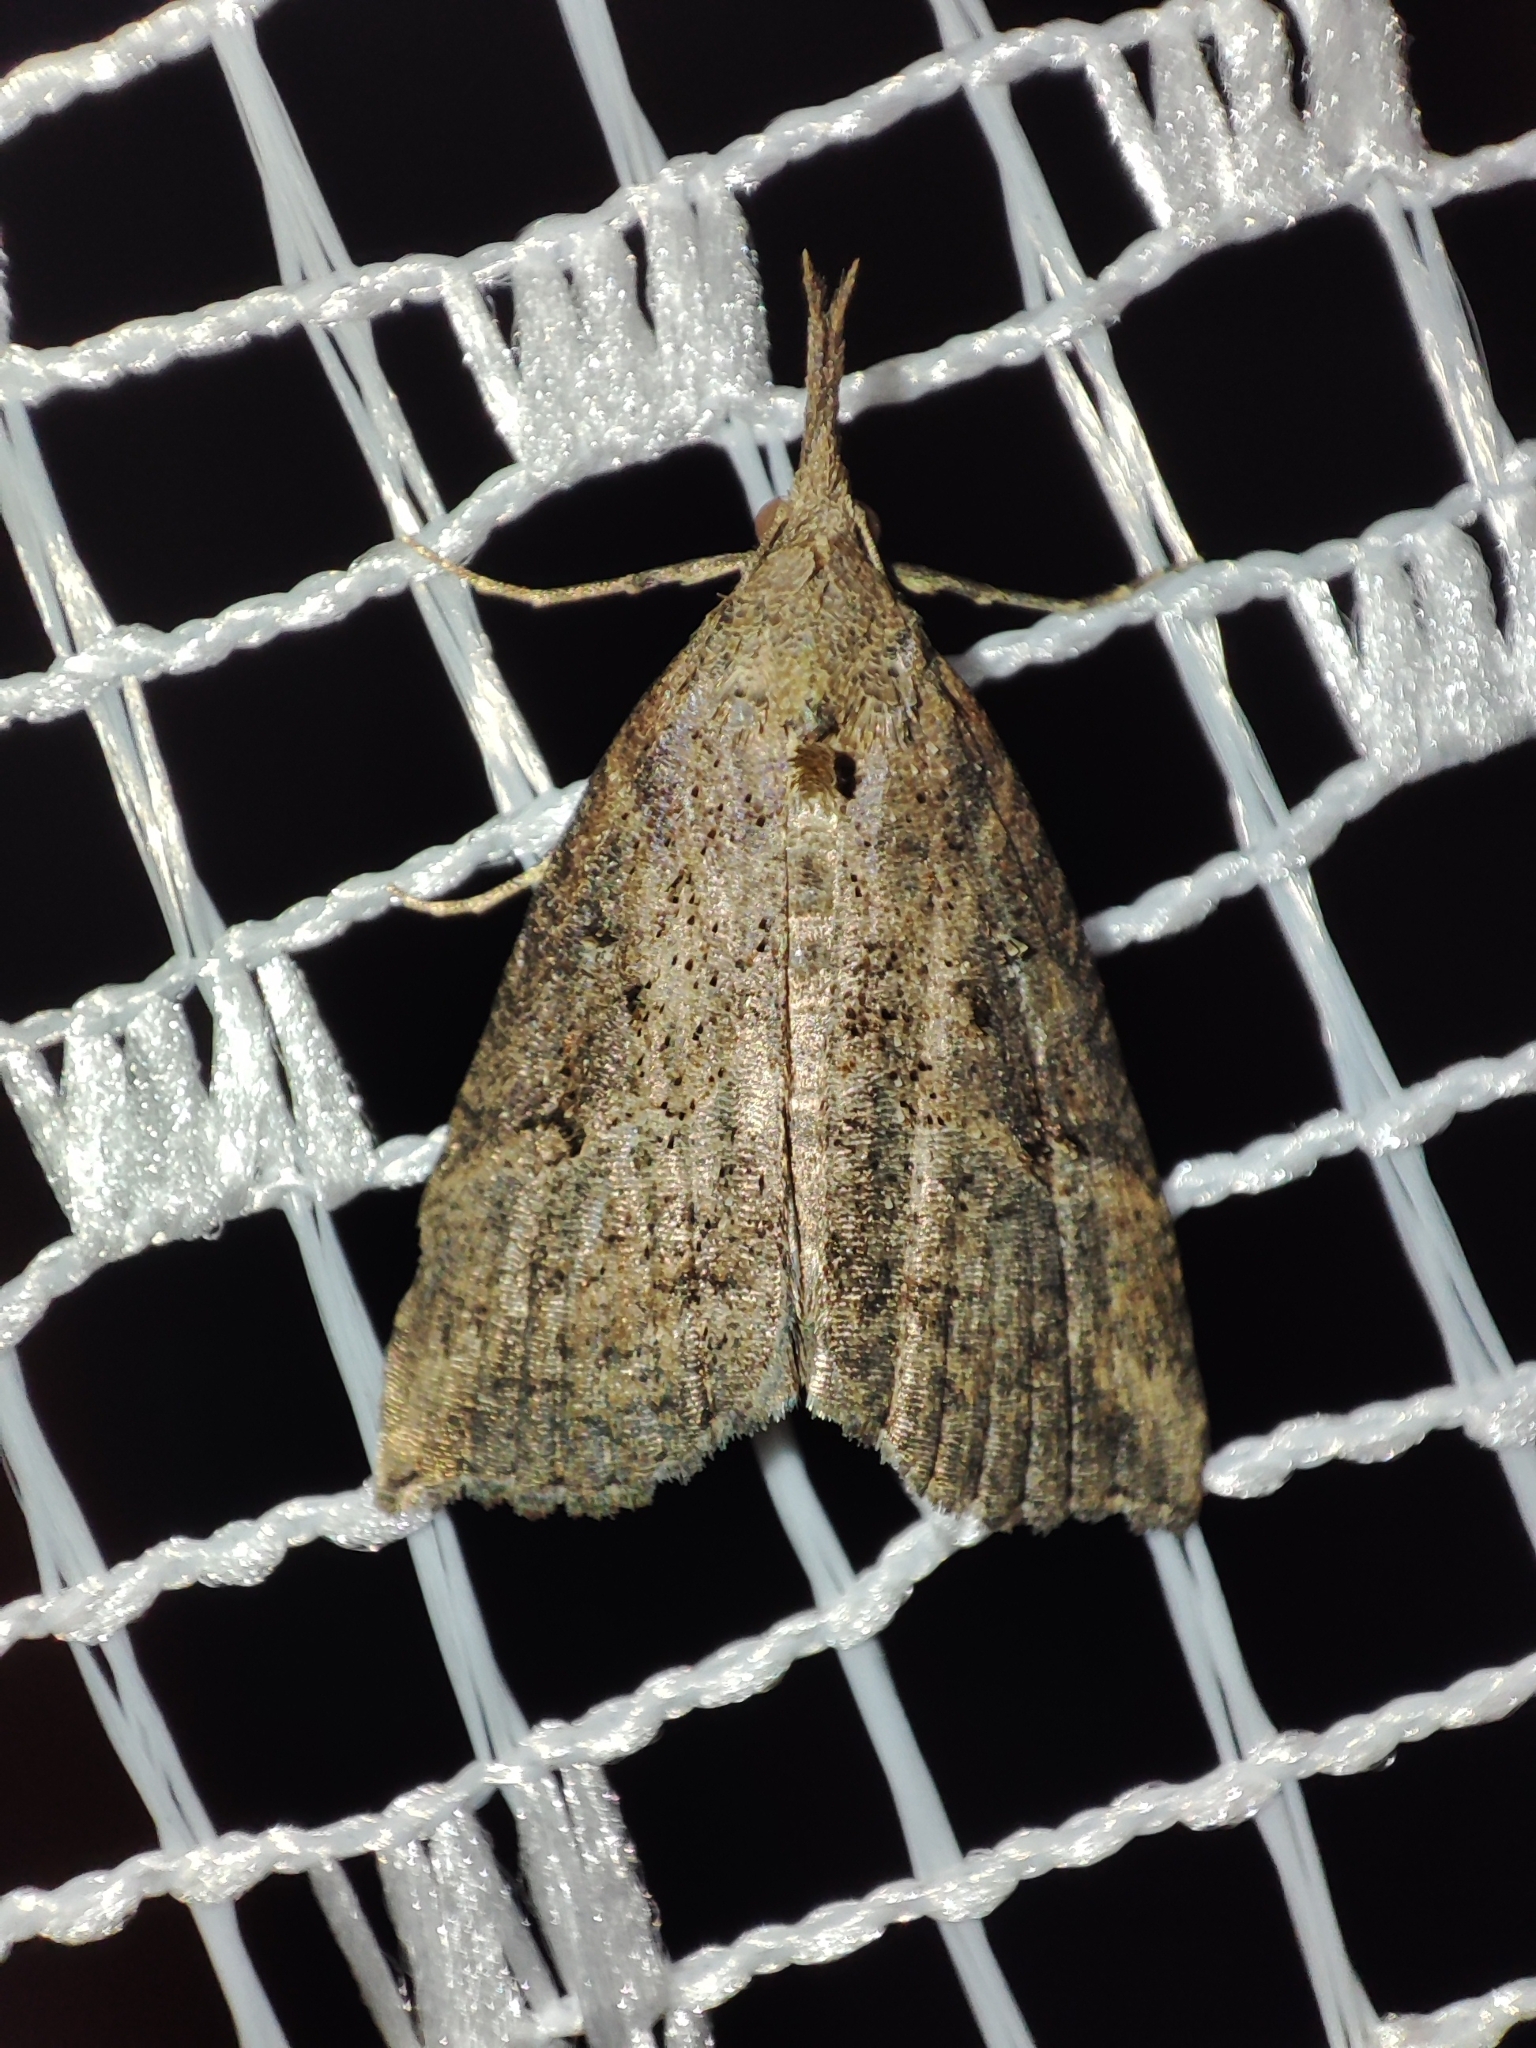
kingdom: Animalia
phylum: Arthropoda
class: Insecta
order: Lepidoptera
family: Erebidae
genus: Hypena
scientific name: Hypena rostralis
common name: Buttoned snout
